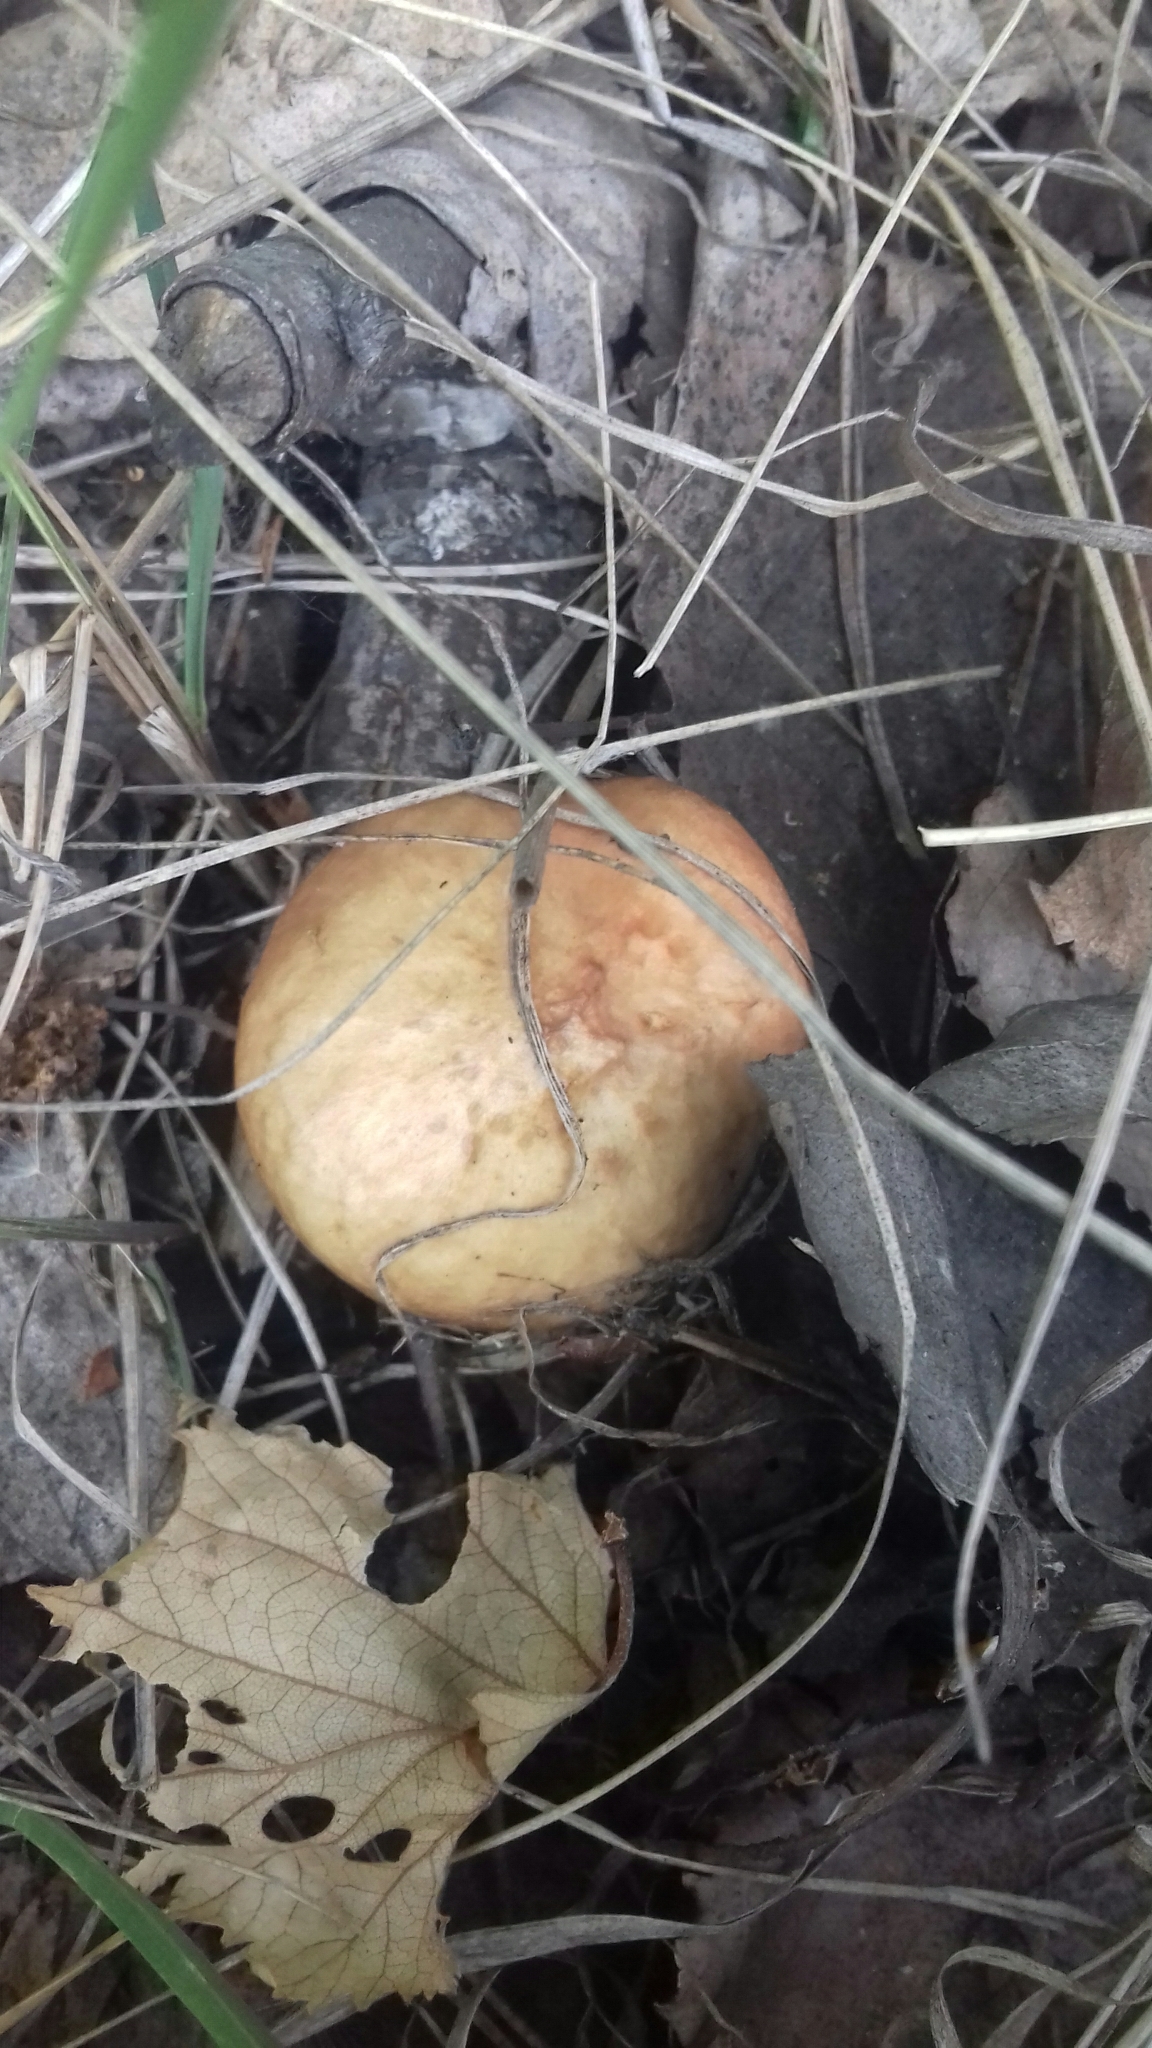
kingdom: Fungi
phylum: Basidiomycota
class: Agaricomycetes
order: Boletales
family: Suillaceae
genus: Suillus
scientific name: Suillus granulatus
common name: Weeping bolete
